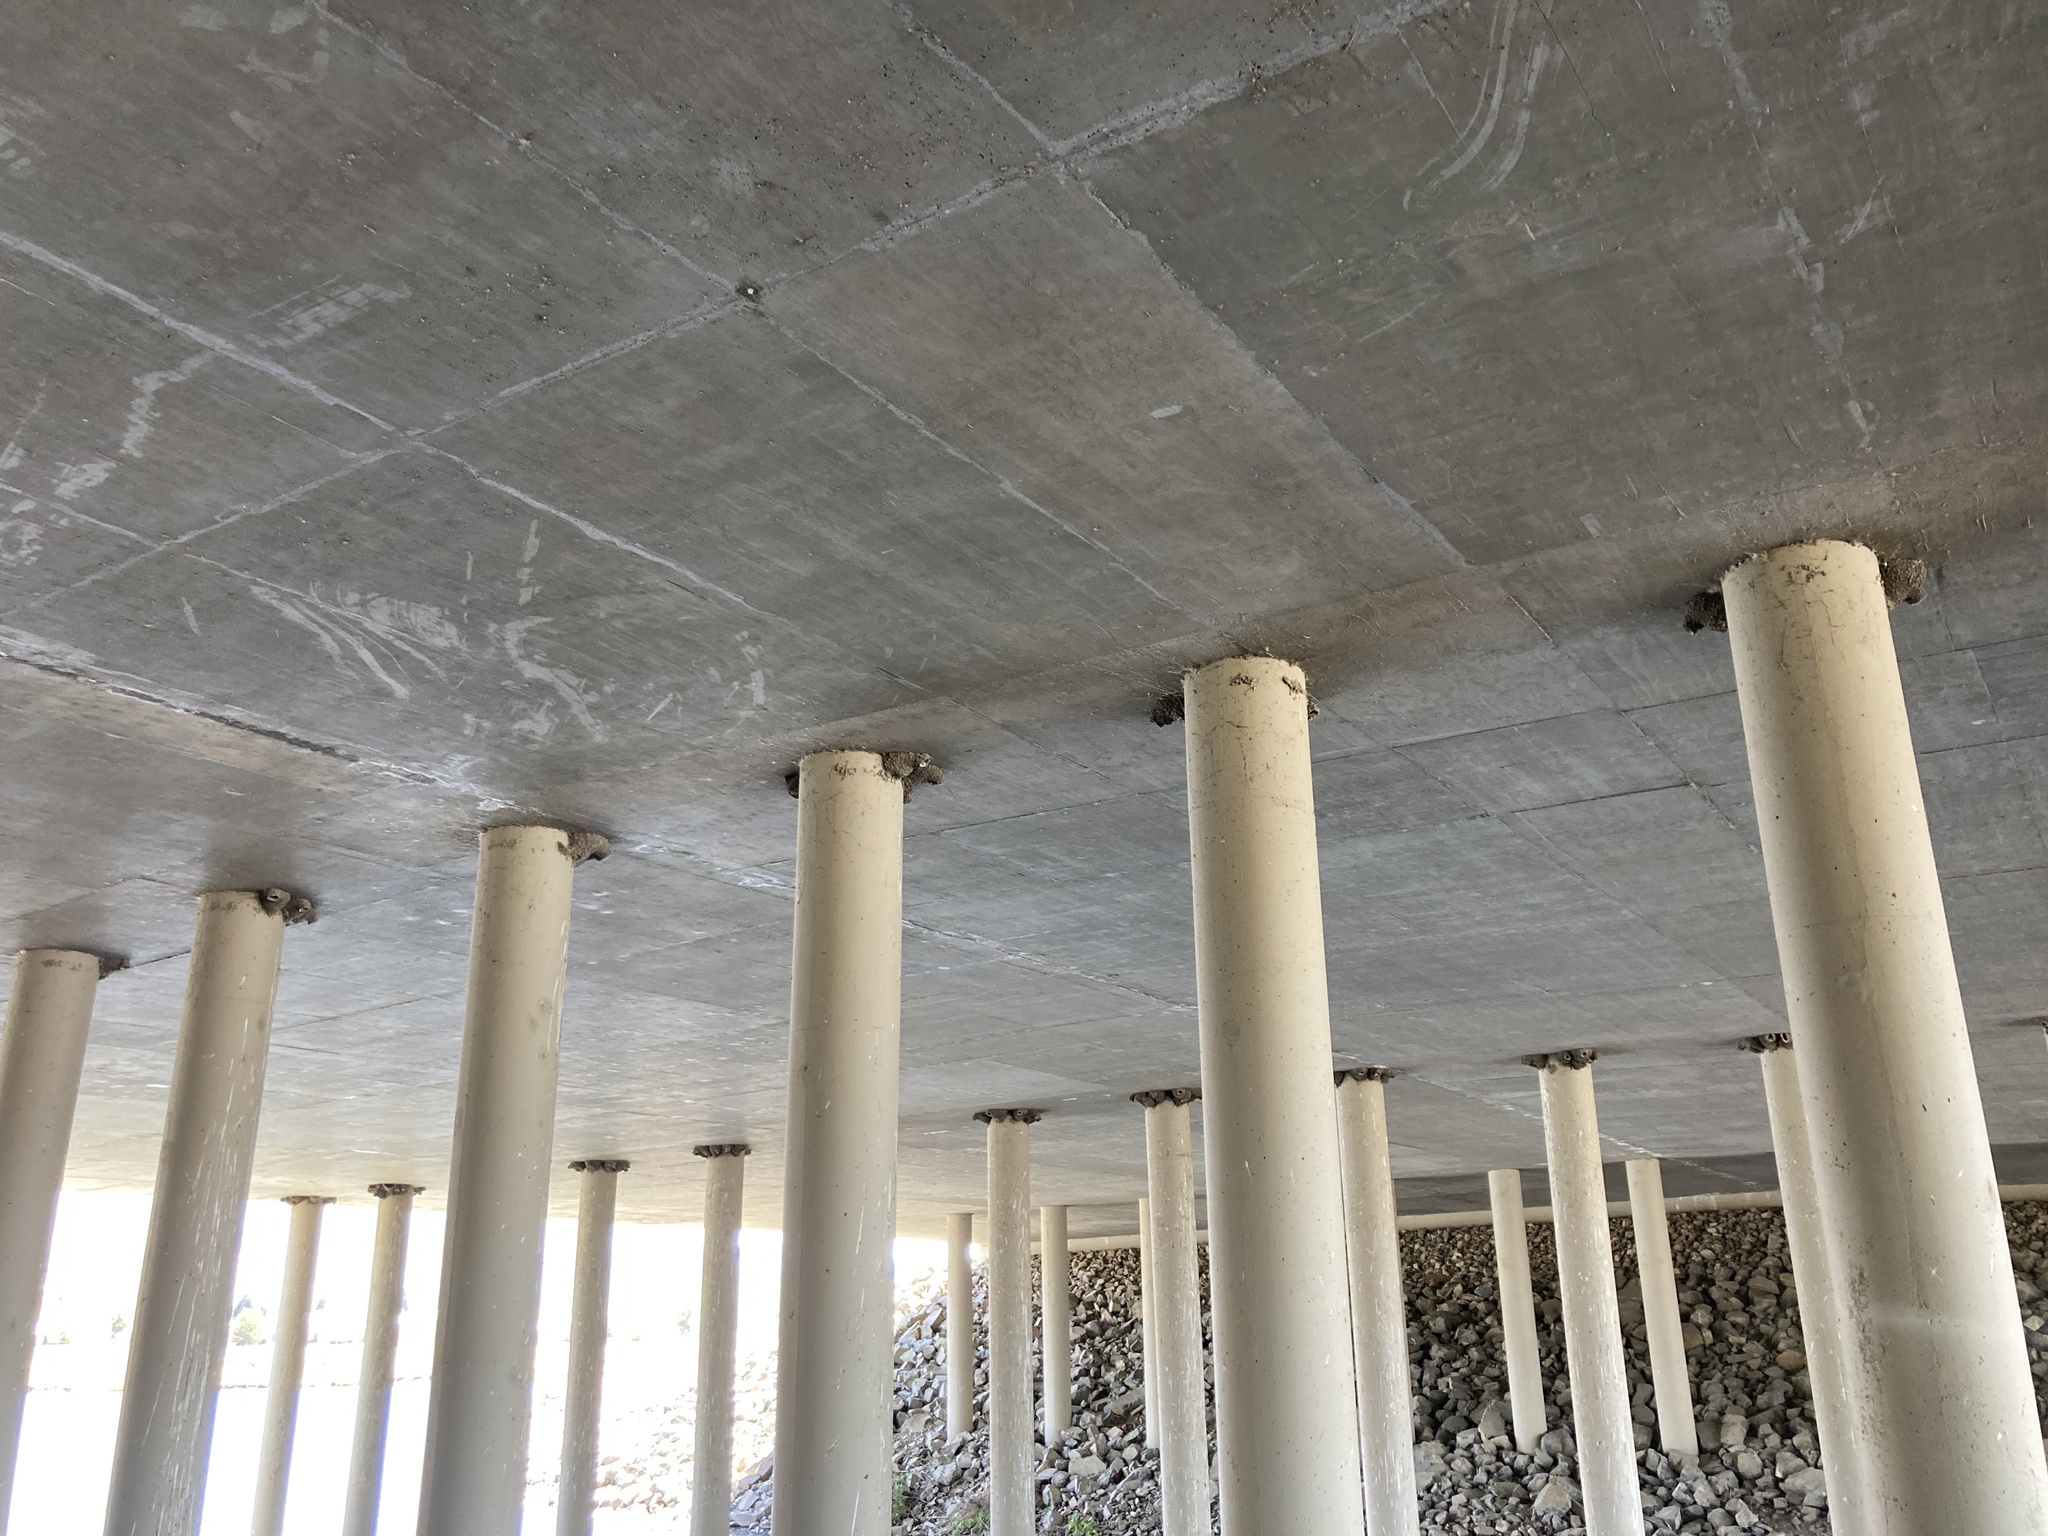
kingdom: Animalia
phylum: Chordata
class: Aves
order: Passeriformes
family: Hirundinidae
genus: Petrochelidon
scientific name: Petrochelidon pyrrhonota
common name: American cliff swallow
